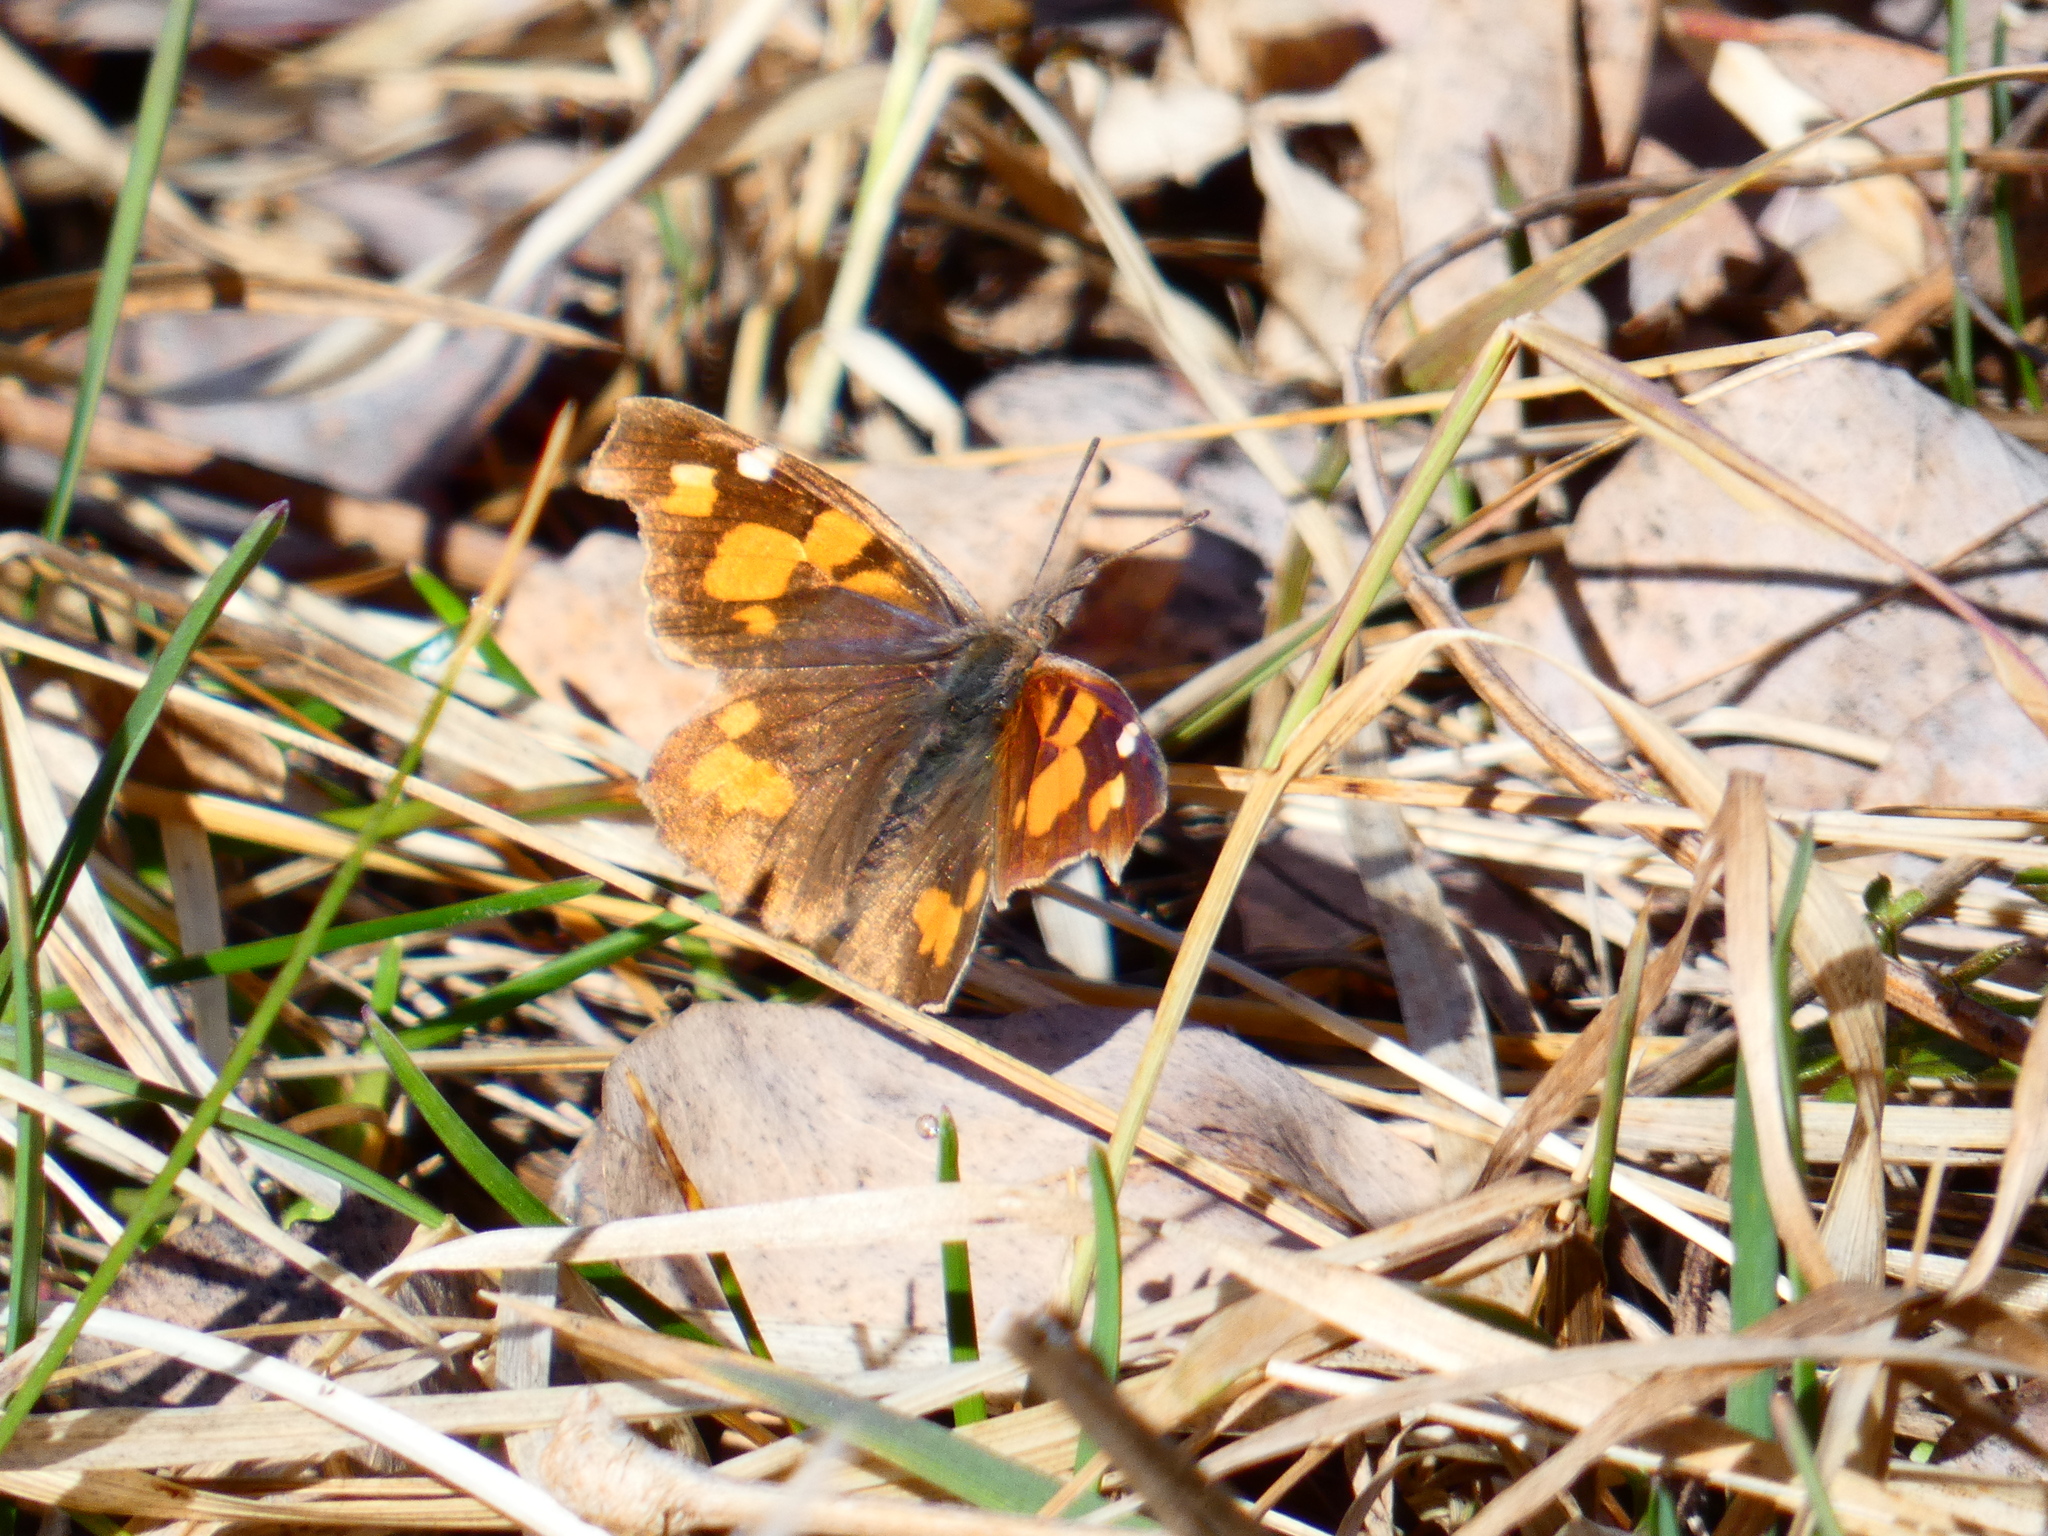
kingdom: Animalia
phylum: Arthropoda
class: Insecta
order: Lepidoptera
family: Nymphalidae
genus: Libythea
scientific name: Libythea celtis
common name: Nettle-tree butterfly
